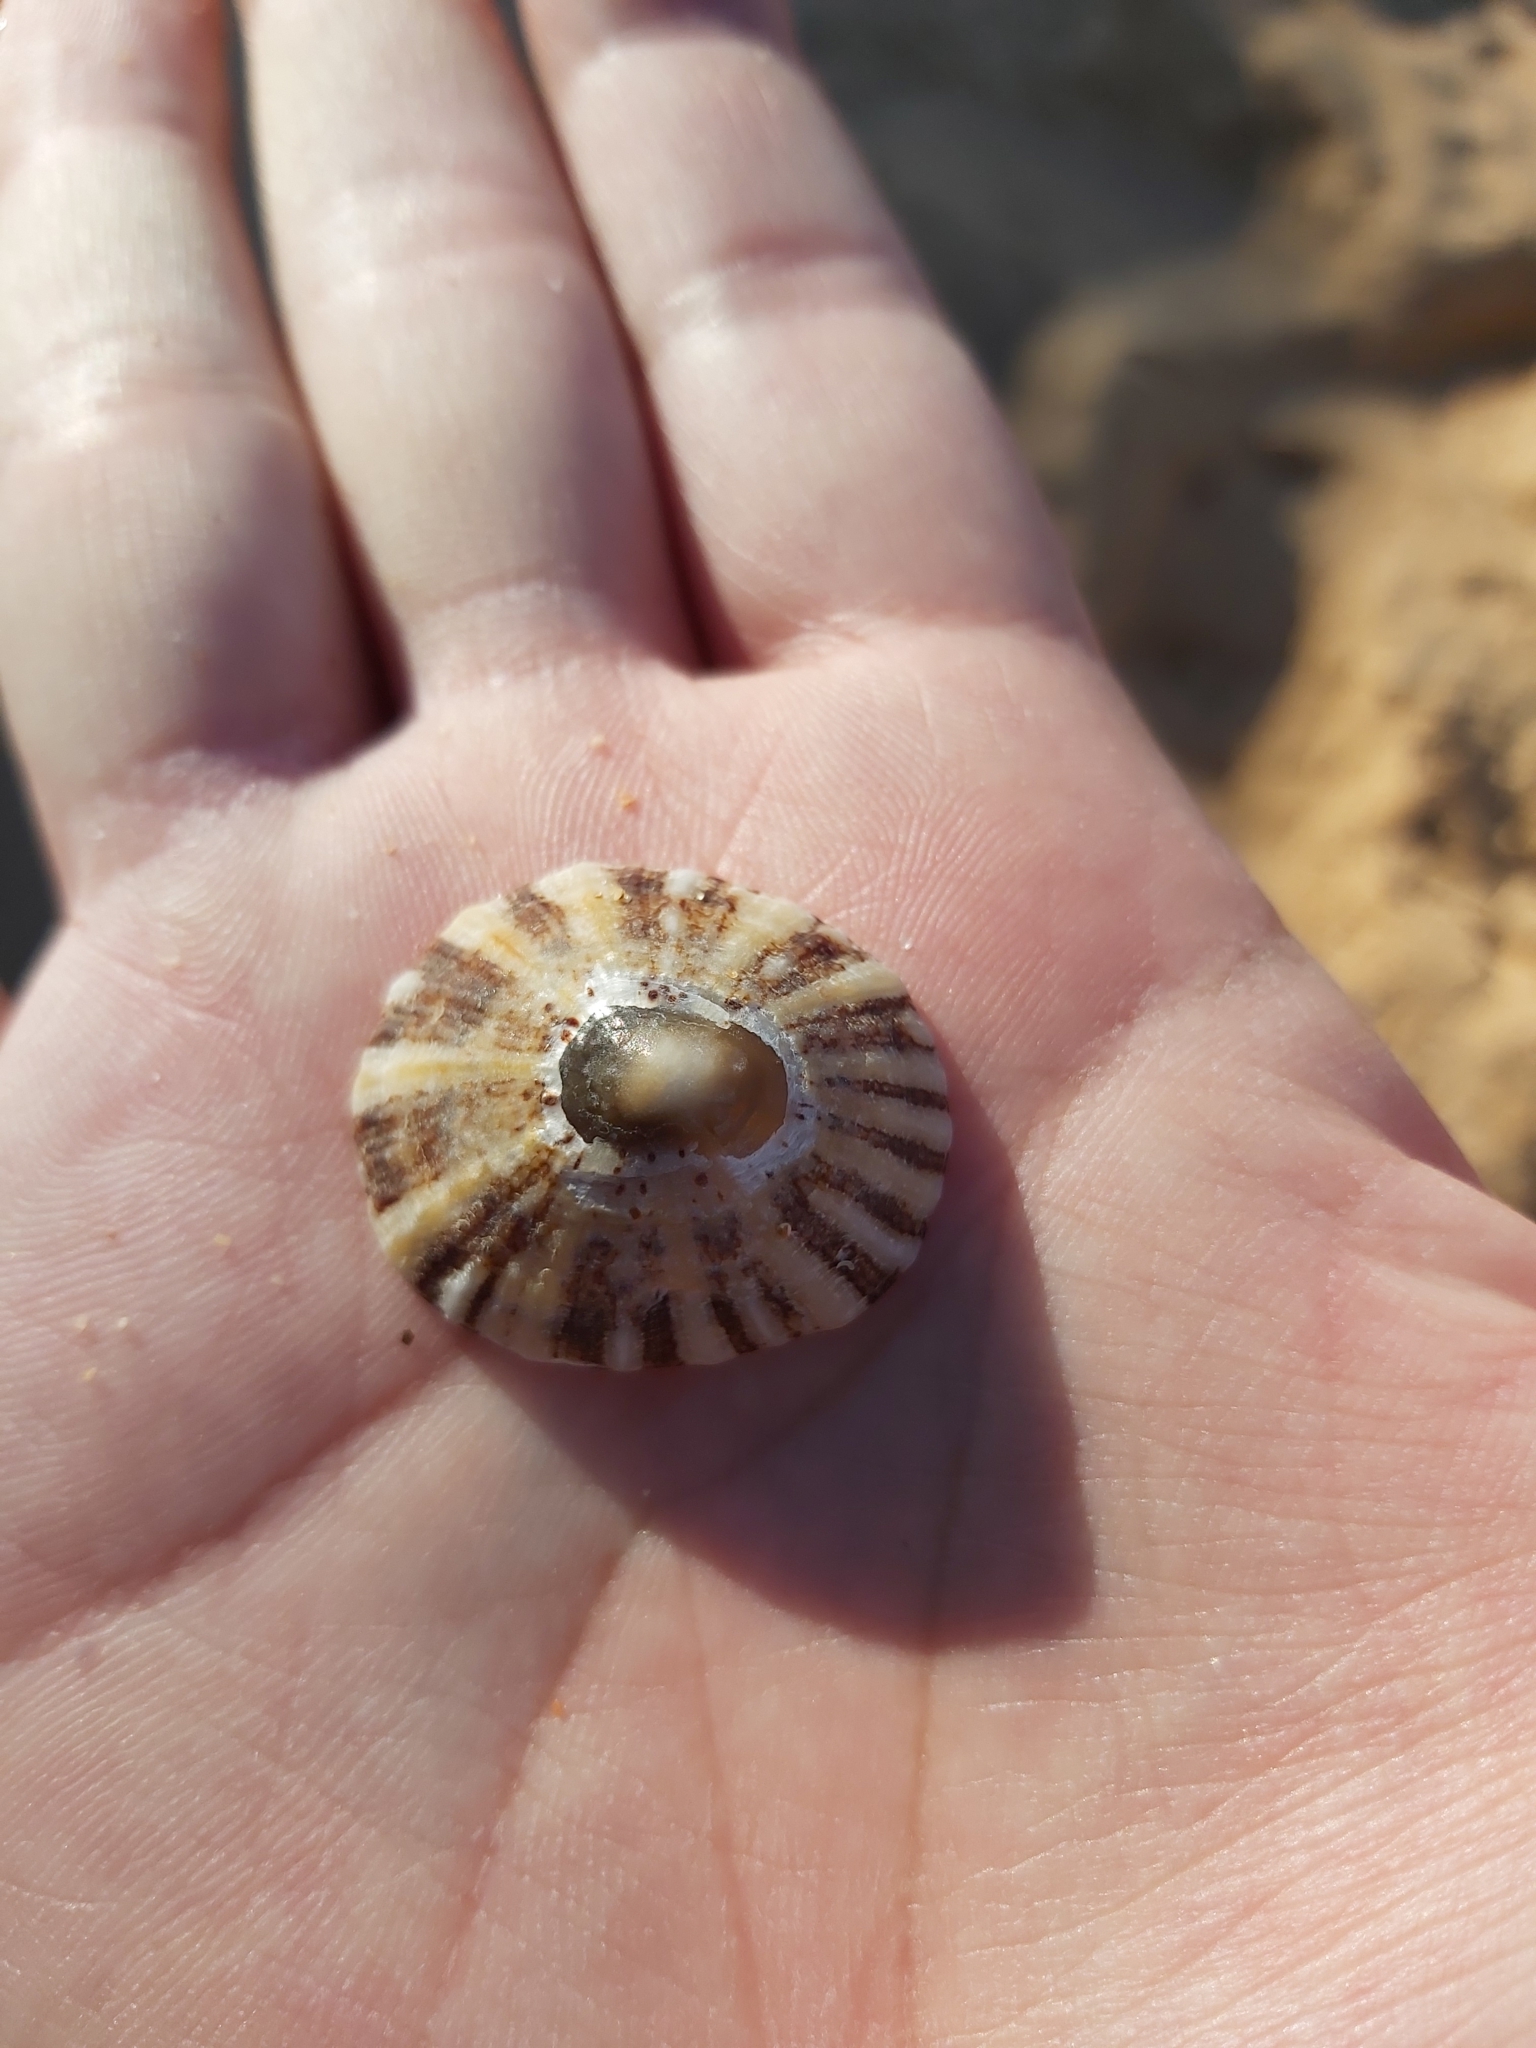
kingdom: Animalia
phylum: Mollusca
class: Gastropoda
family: Nacellidae
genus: Cellana
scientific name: Cellana tramoserica
